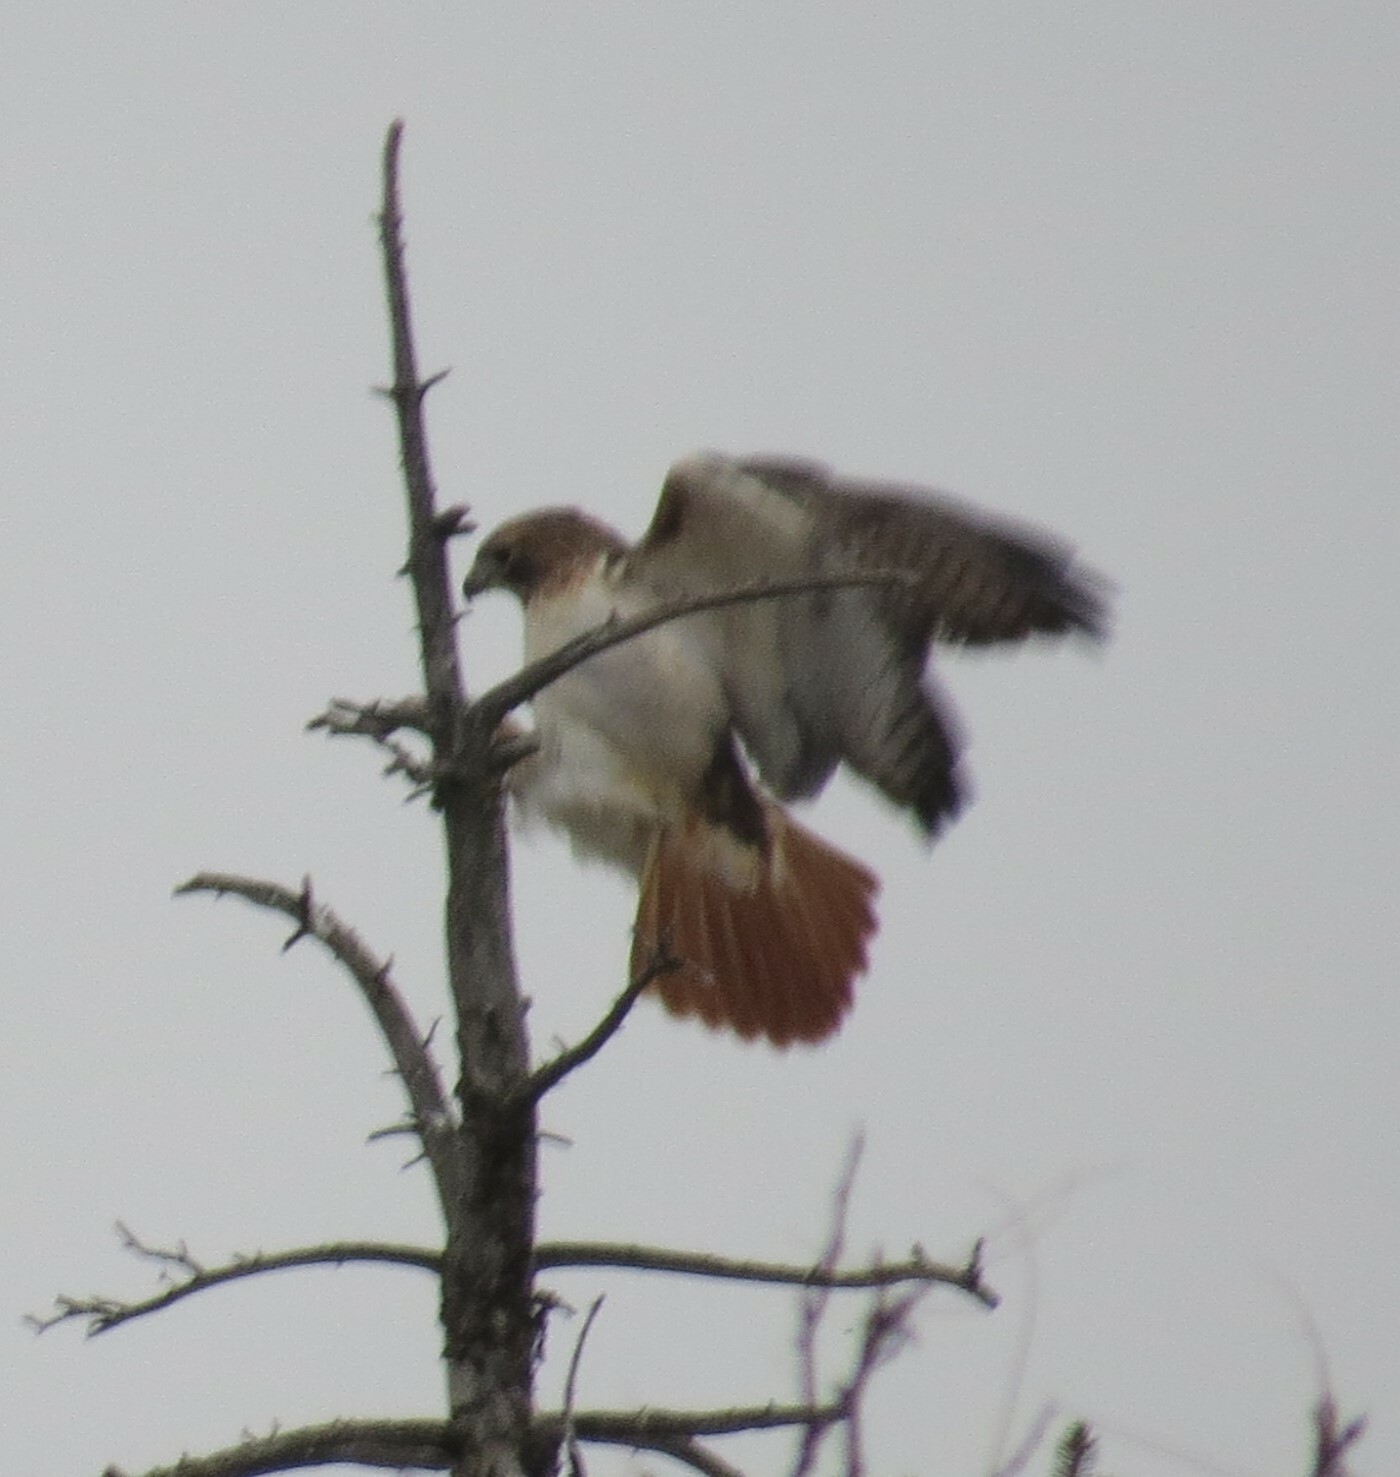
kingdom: Animalia
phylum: Chordata
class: Aves
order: Accipitriformes
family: Accipitridae
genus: Buteo
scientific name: Buteo jamaicensis
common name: Red-tailed hawk
